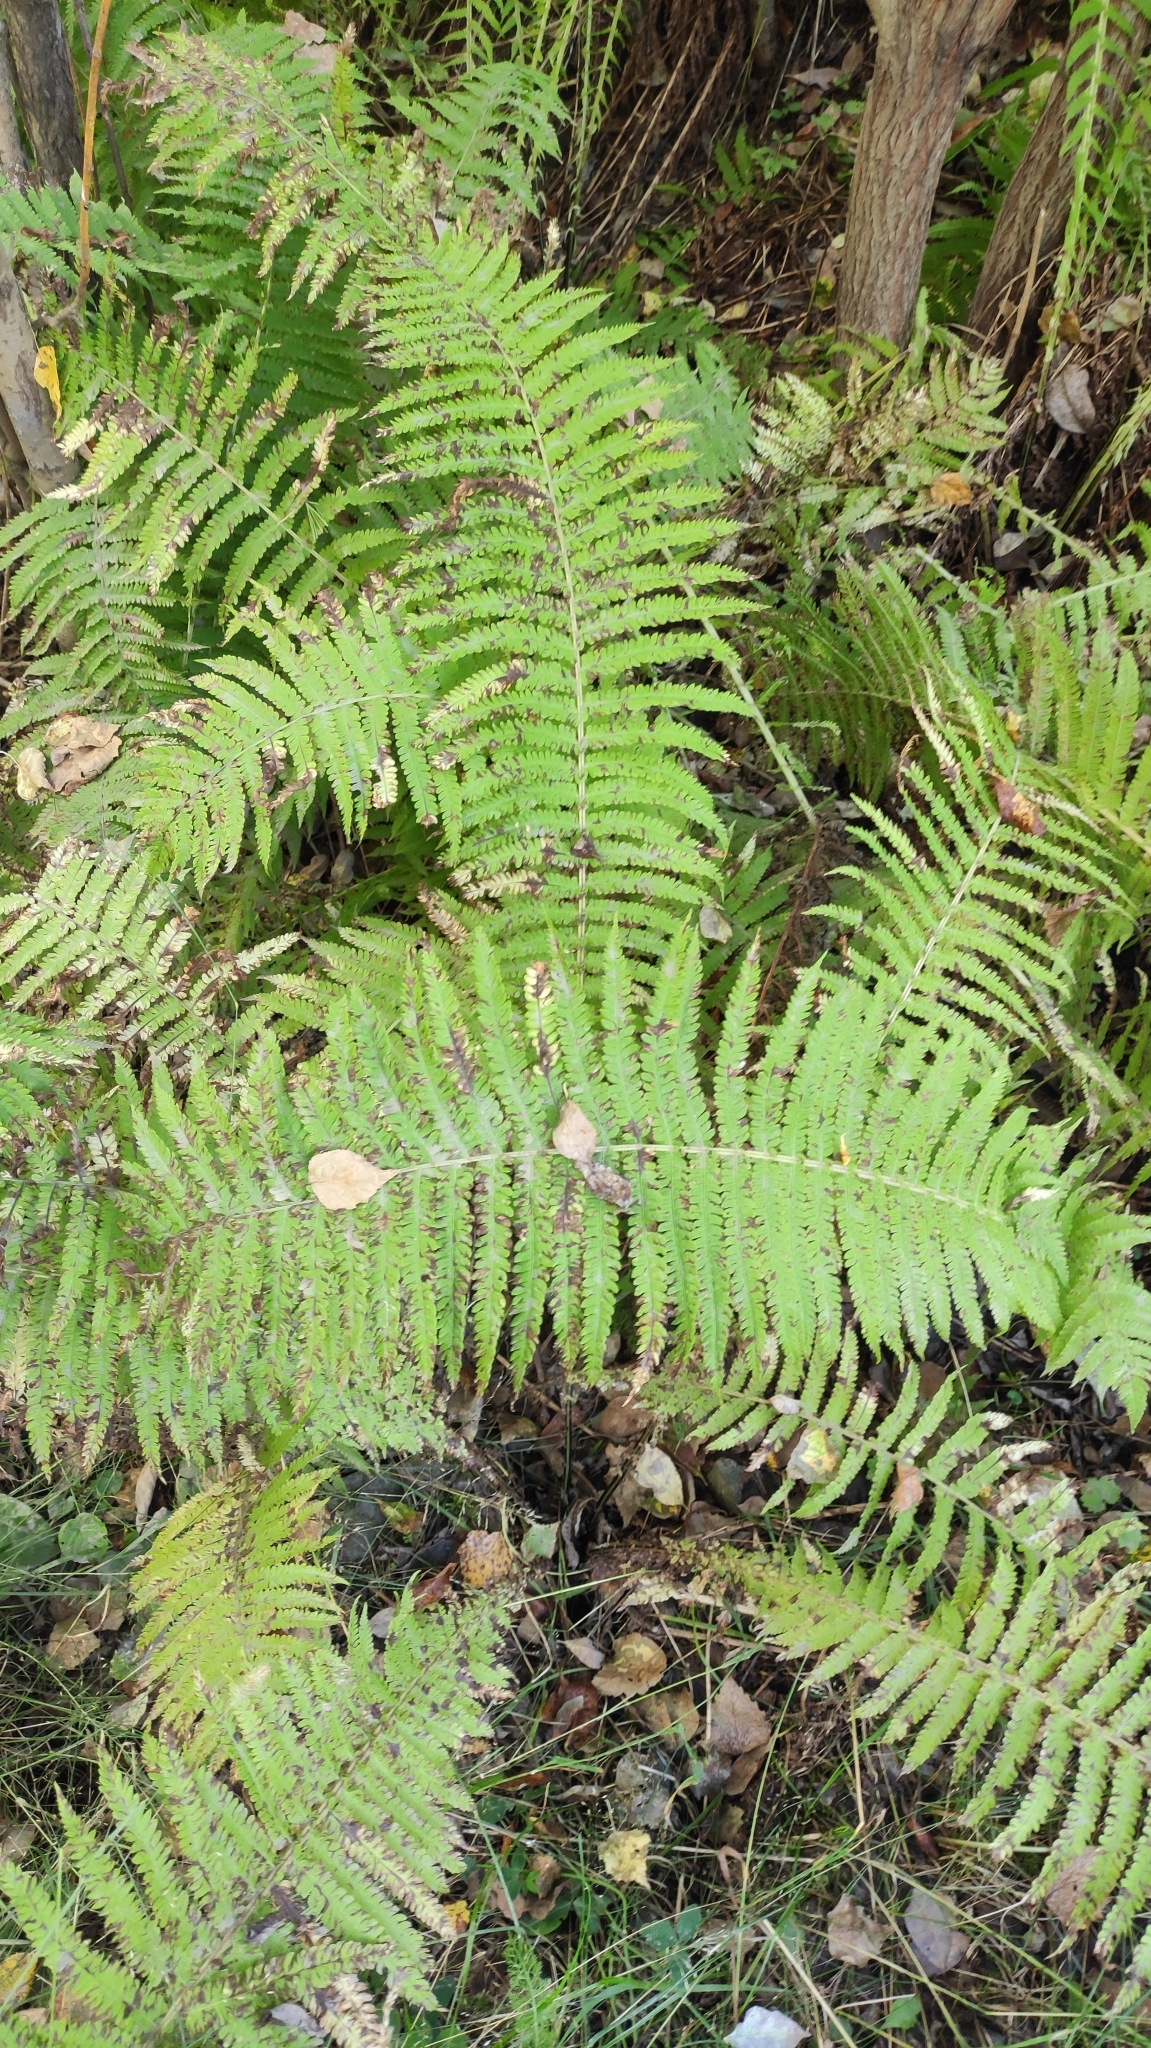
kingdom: Plantae
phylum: Tracheophyta
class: Polypodiopsida
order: Polypodiales
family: Onocleaceae
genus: Matteuccia
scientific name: Matteuccia struthiopteris
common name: Ostrich fern
